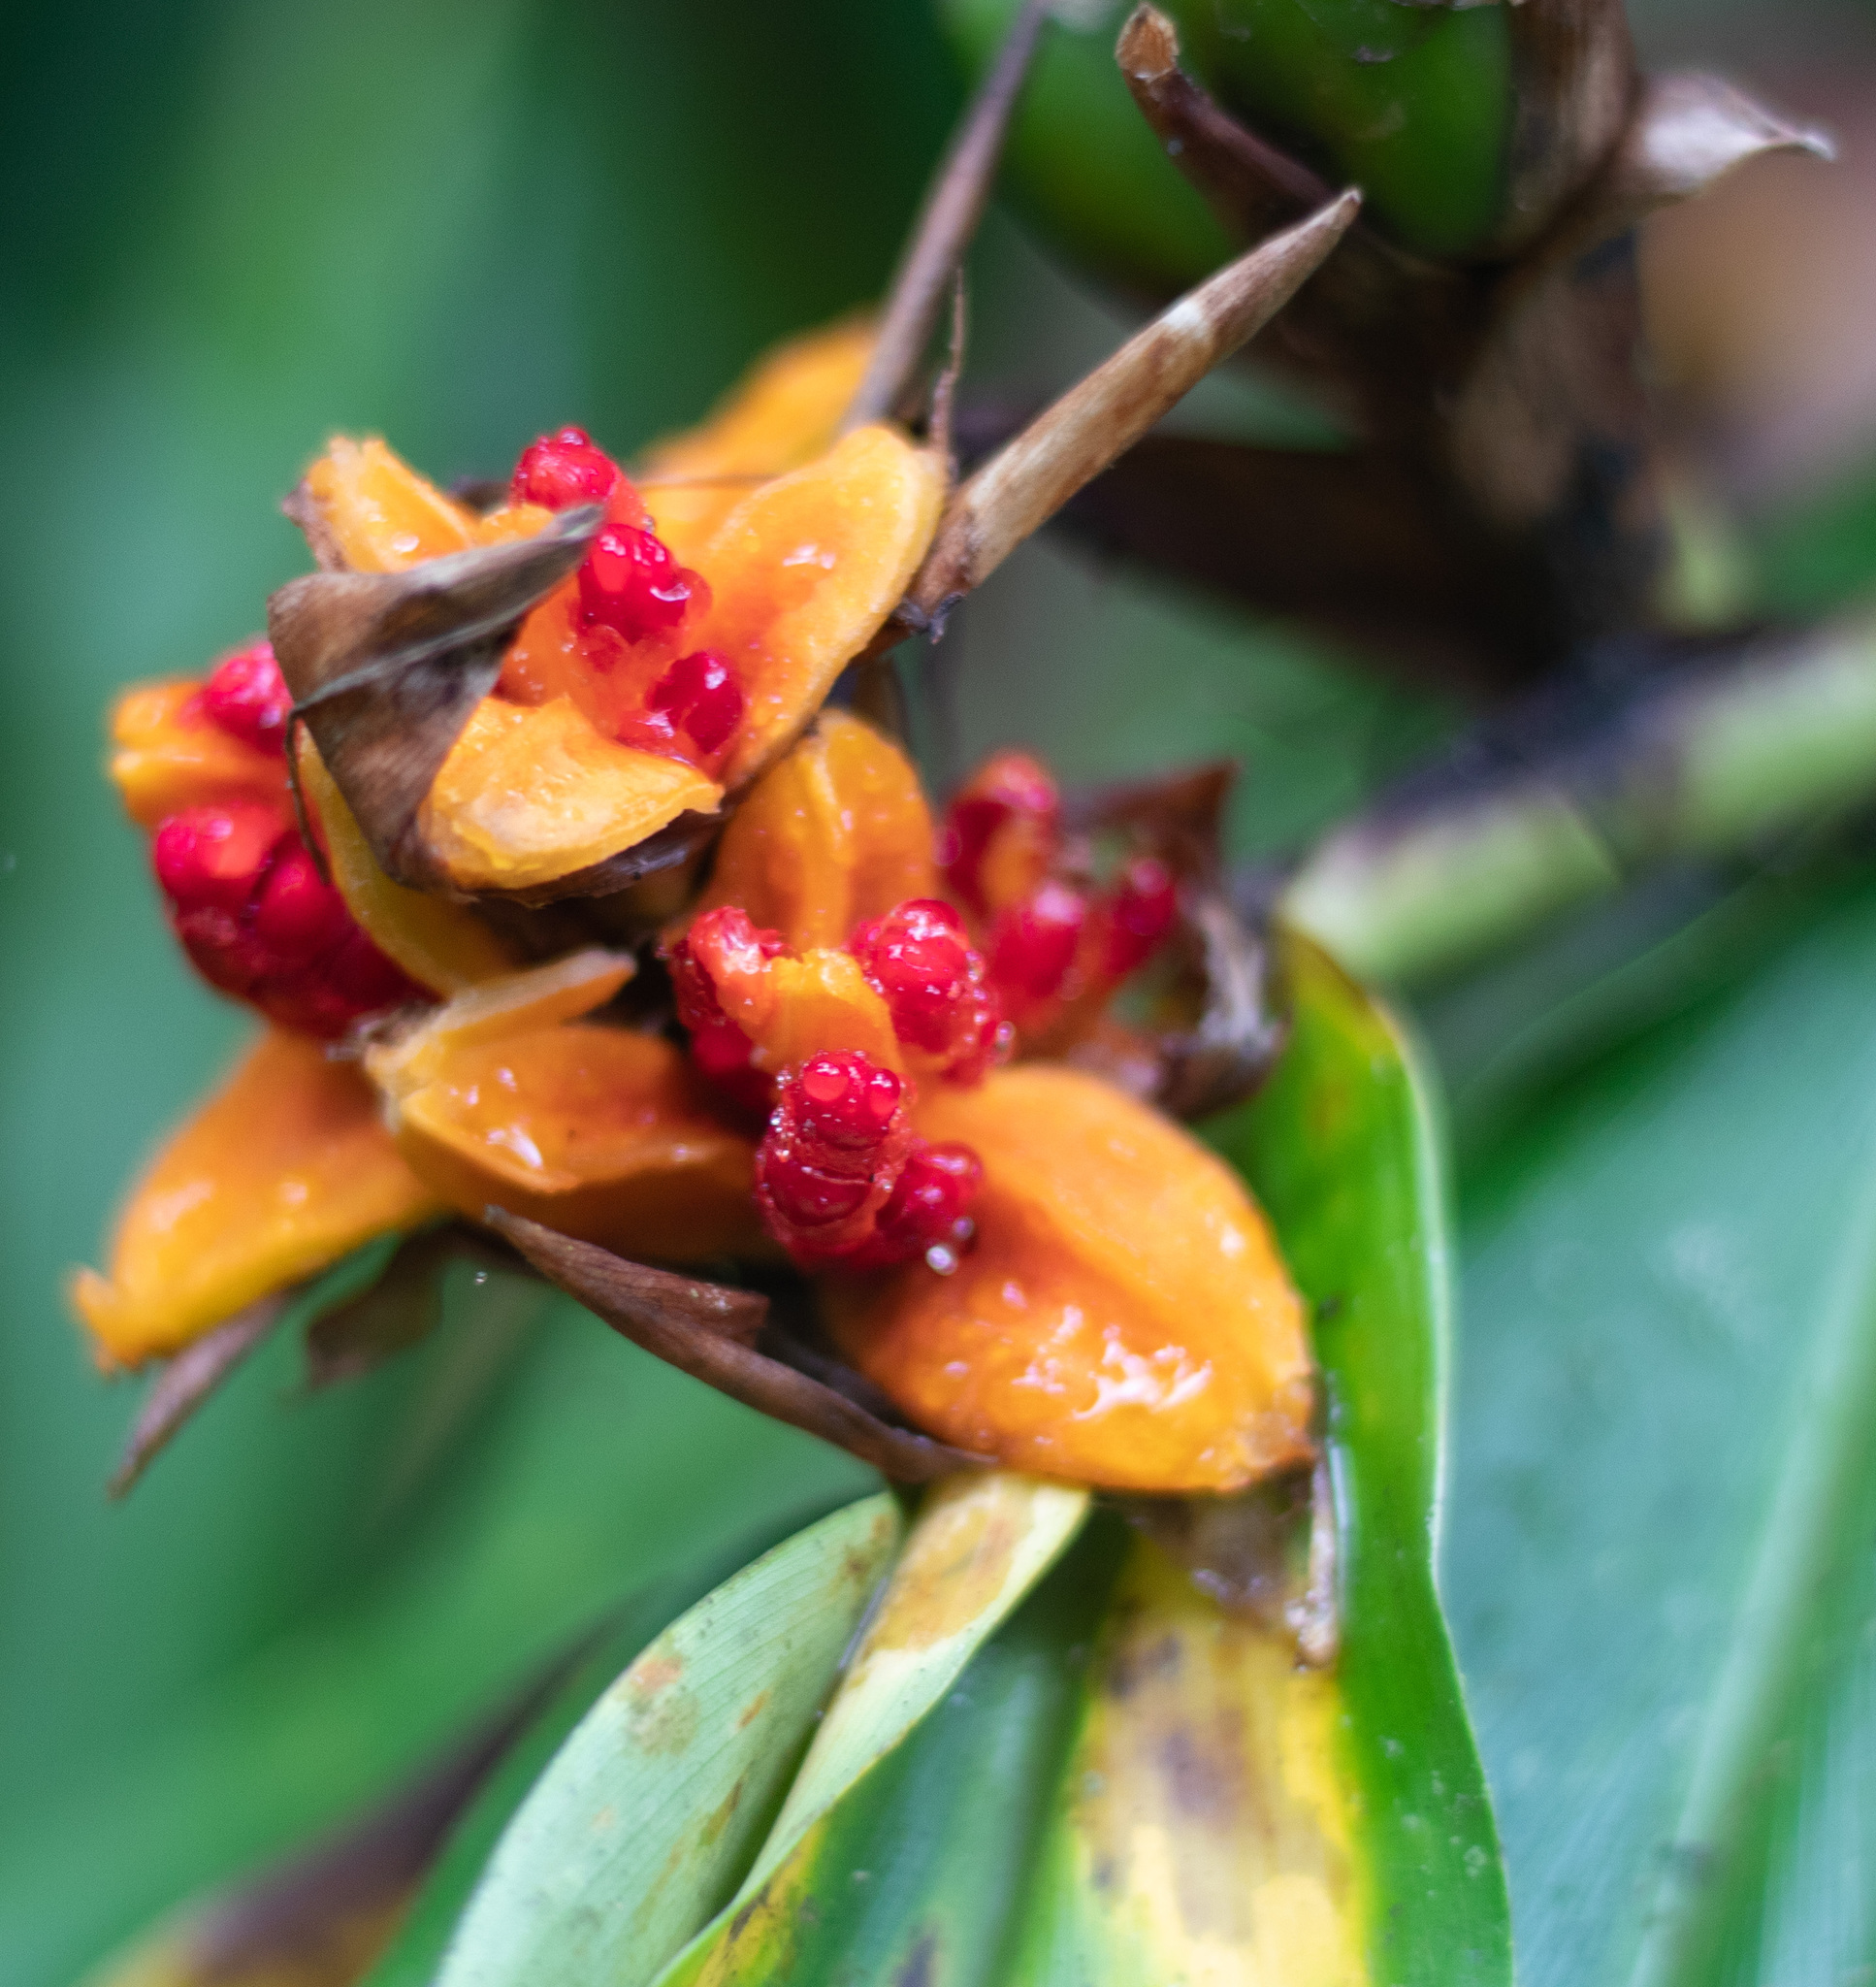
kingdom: Plantae
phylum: Tracheophyta
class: Liliopsida
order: Zingiberales
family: Zingiberaceae
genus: Hedychium
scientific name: Hedychium coronarium
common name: White garland-lily
